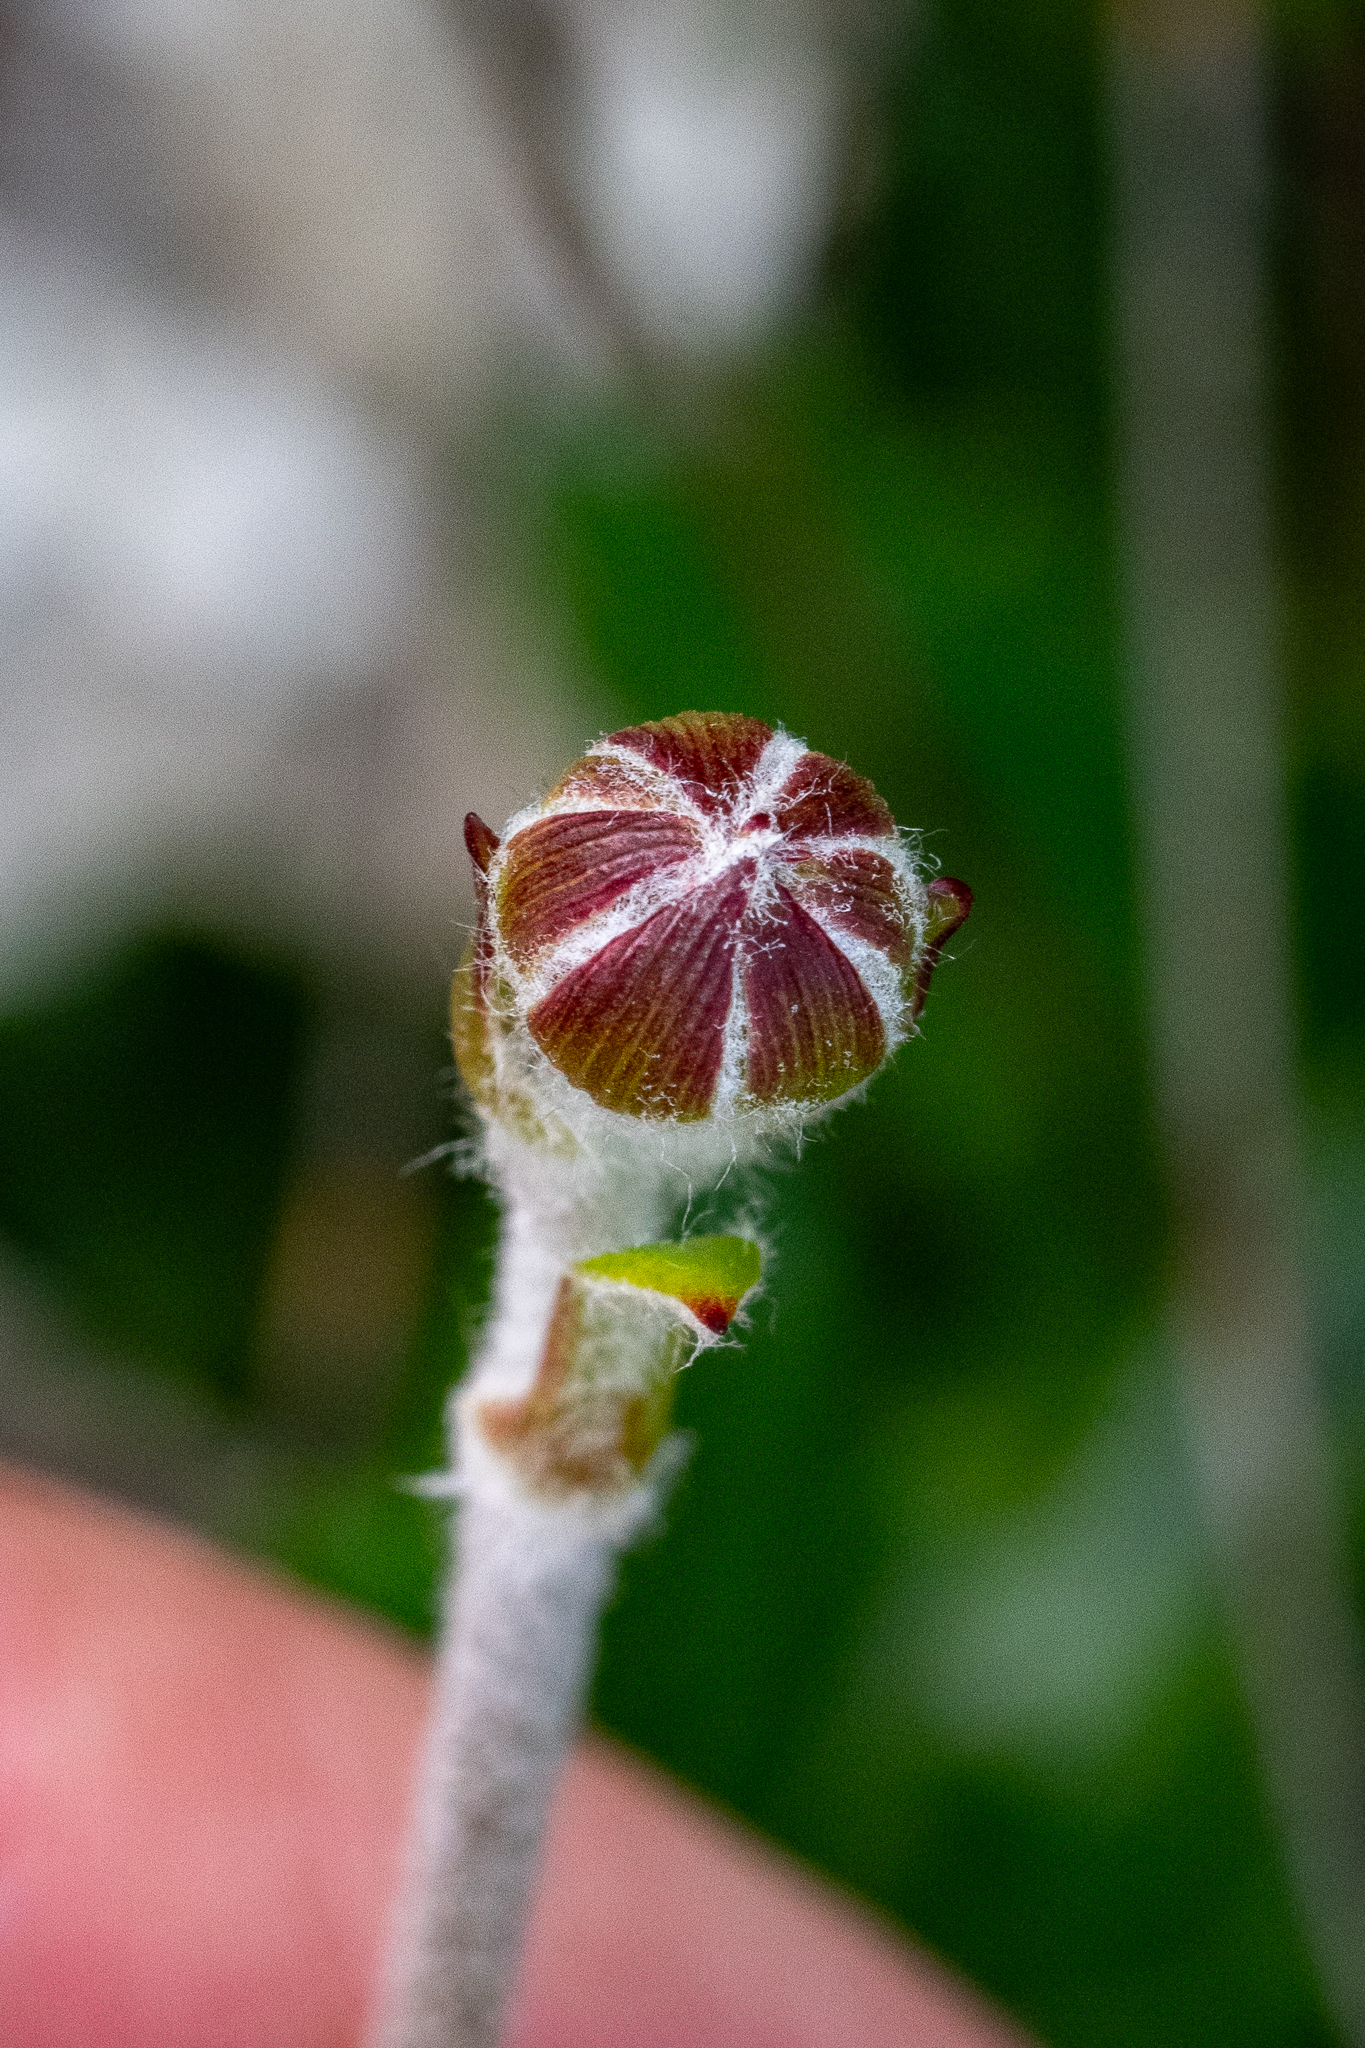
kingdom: Plantae
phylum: Tracheophyta
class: Magnoliopsida
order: Asterales
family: Asteraceae
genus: Capelio
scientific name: Capelio caledonica
